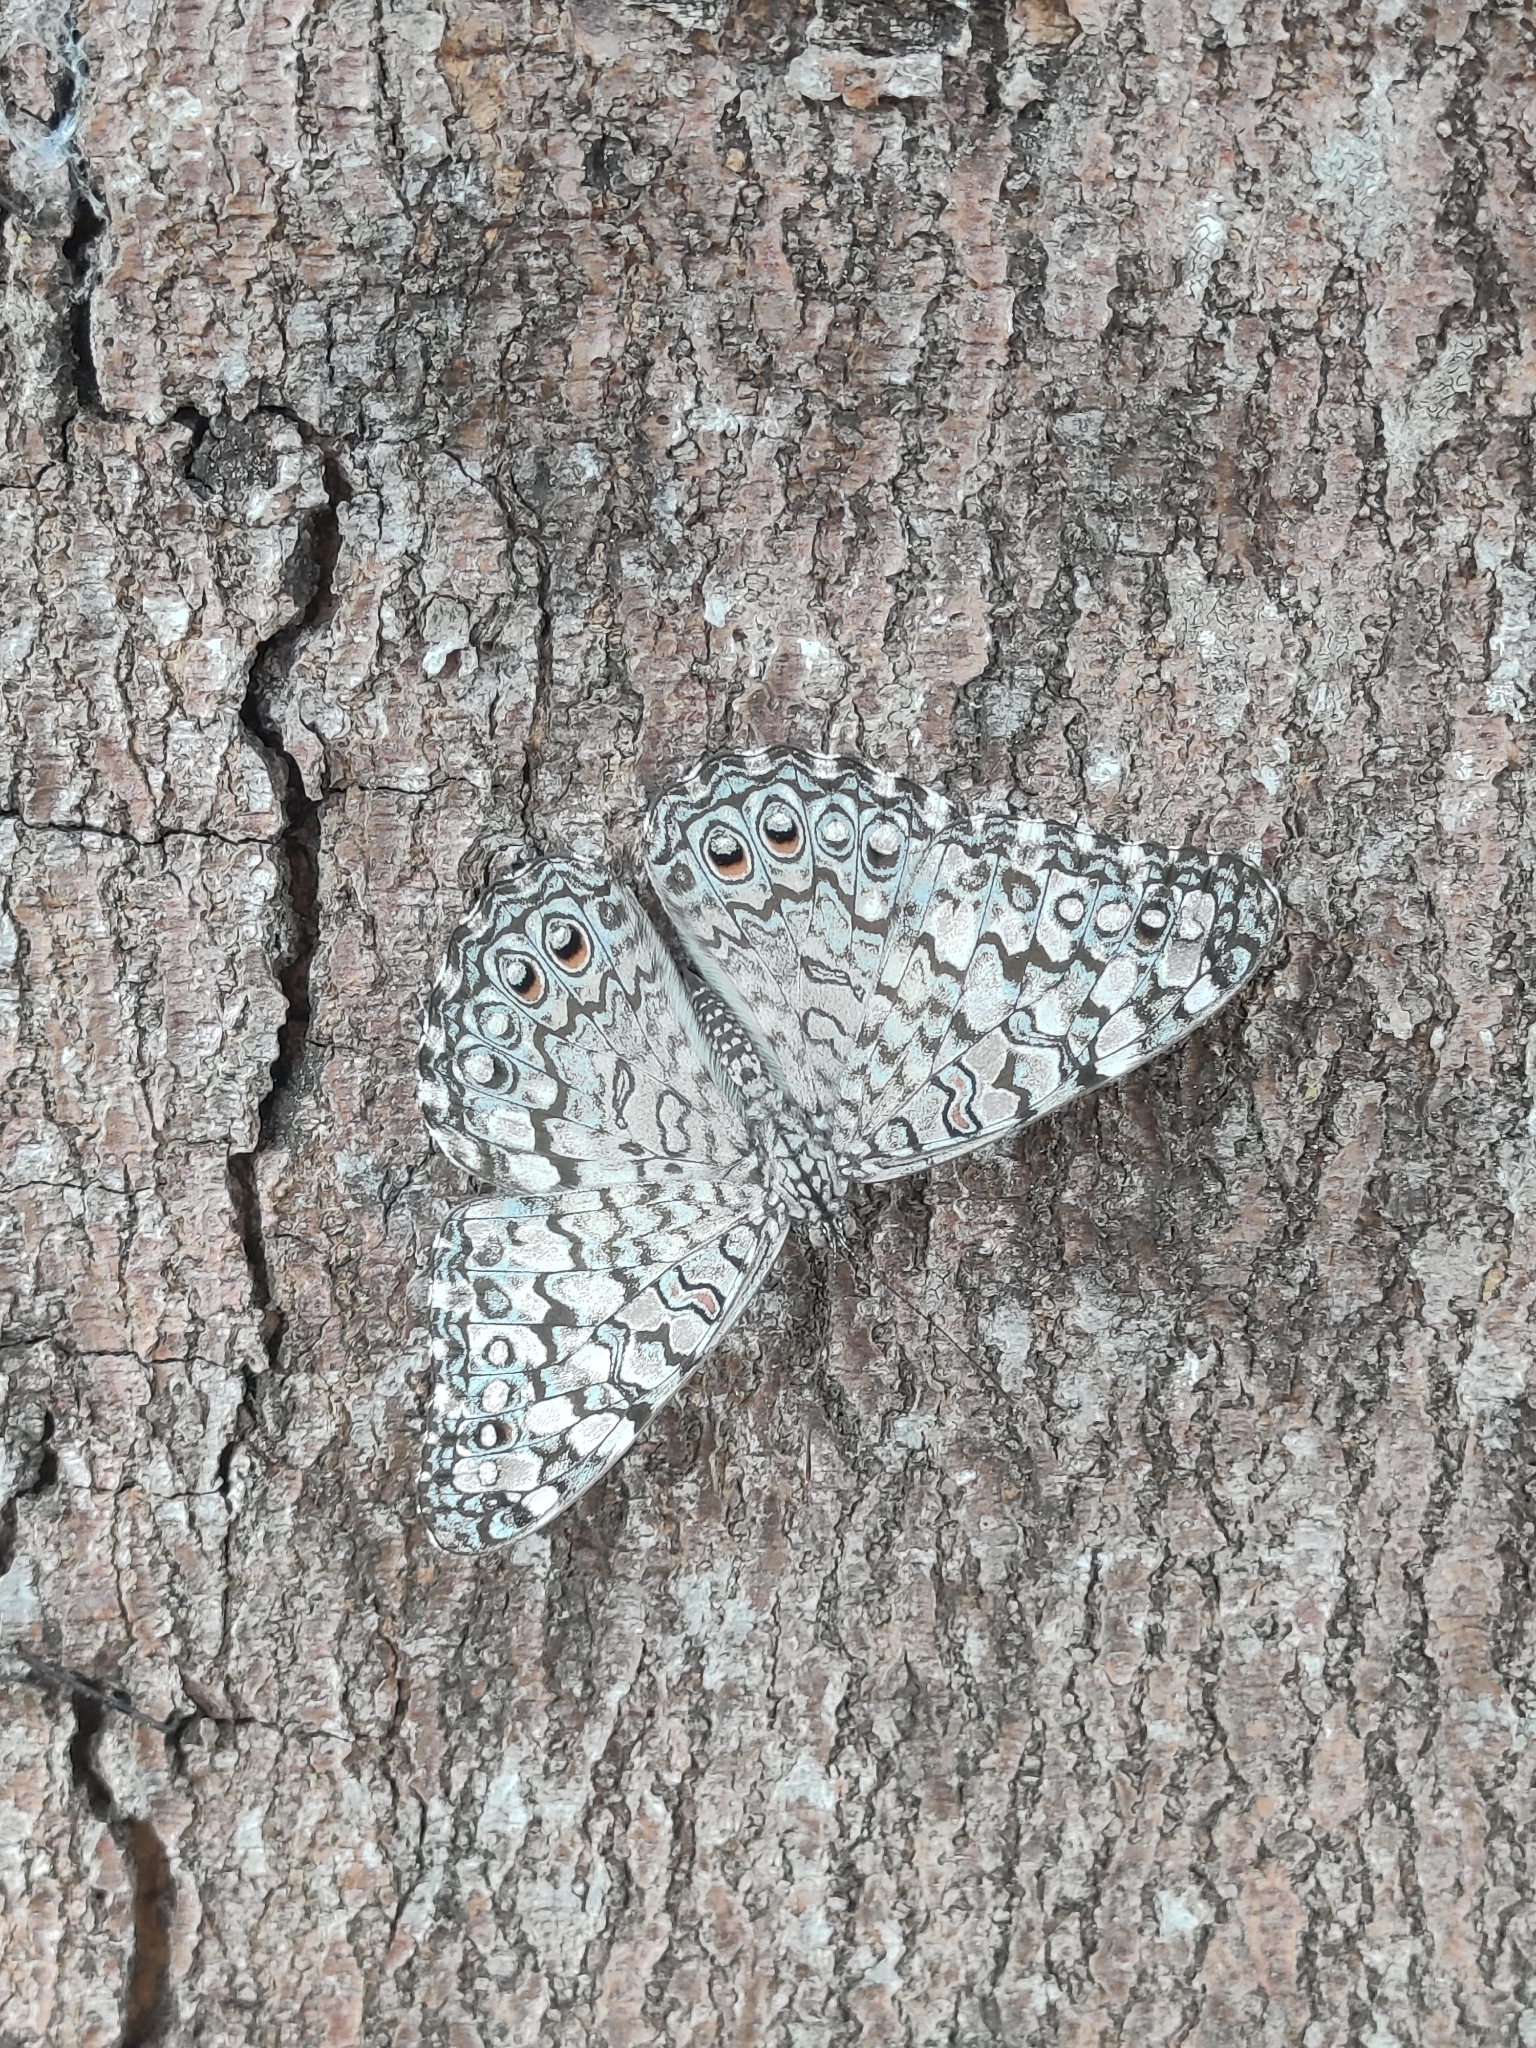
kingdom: Animalia
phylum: Arthropoda
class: Insecta
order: Lepidoptera
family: Nymphalidae
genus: Hamadryas
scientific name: Hamadryas februa
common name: Gray cracker
